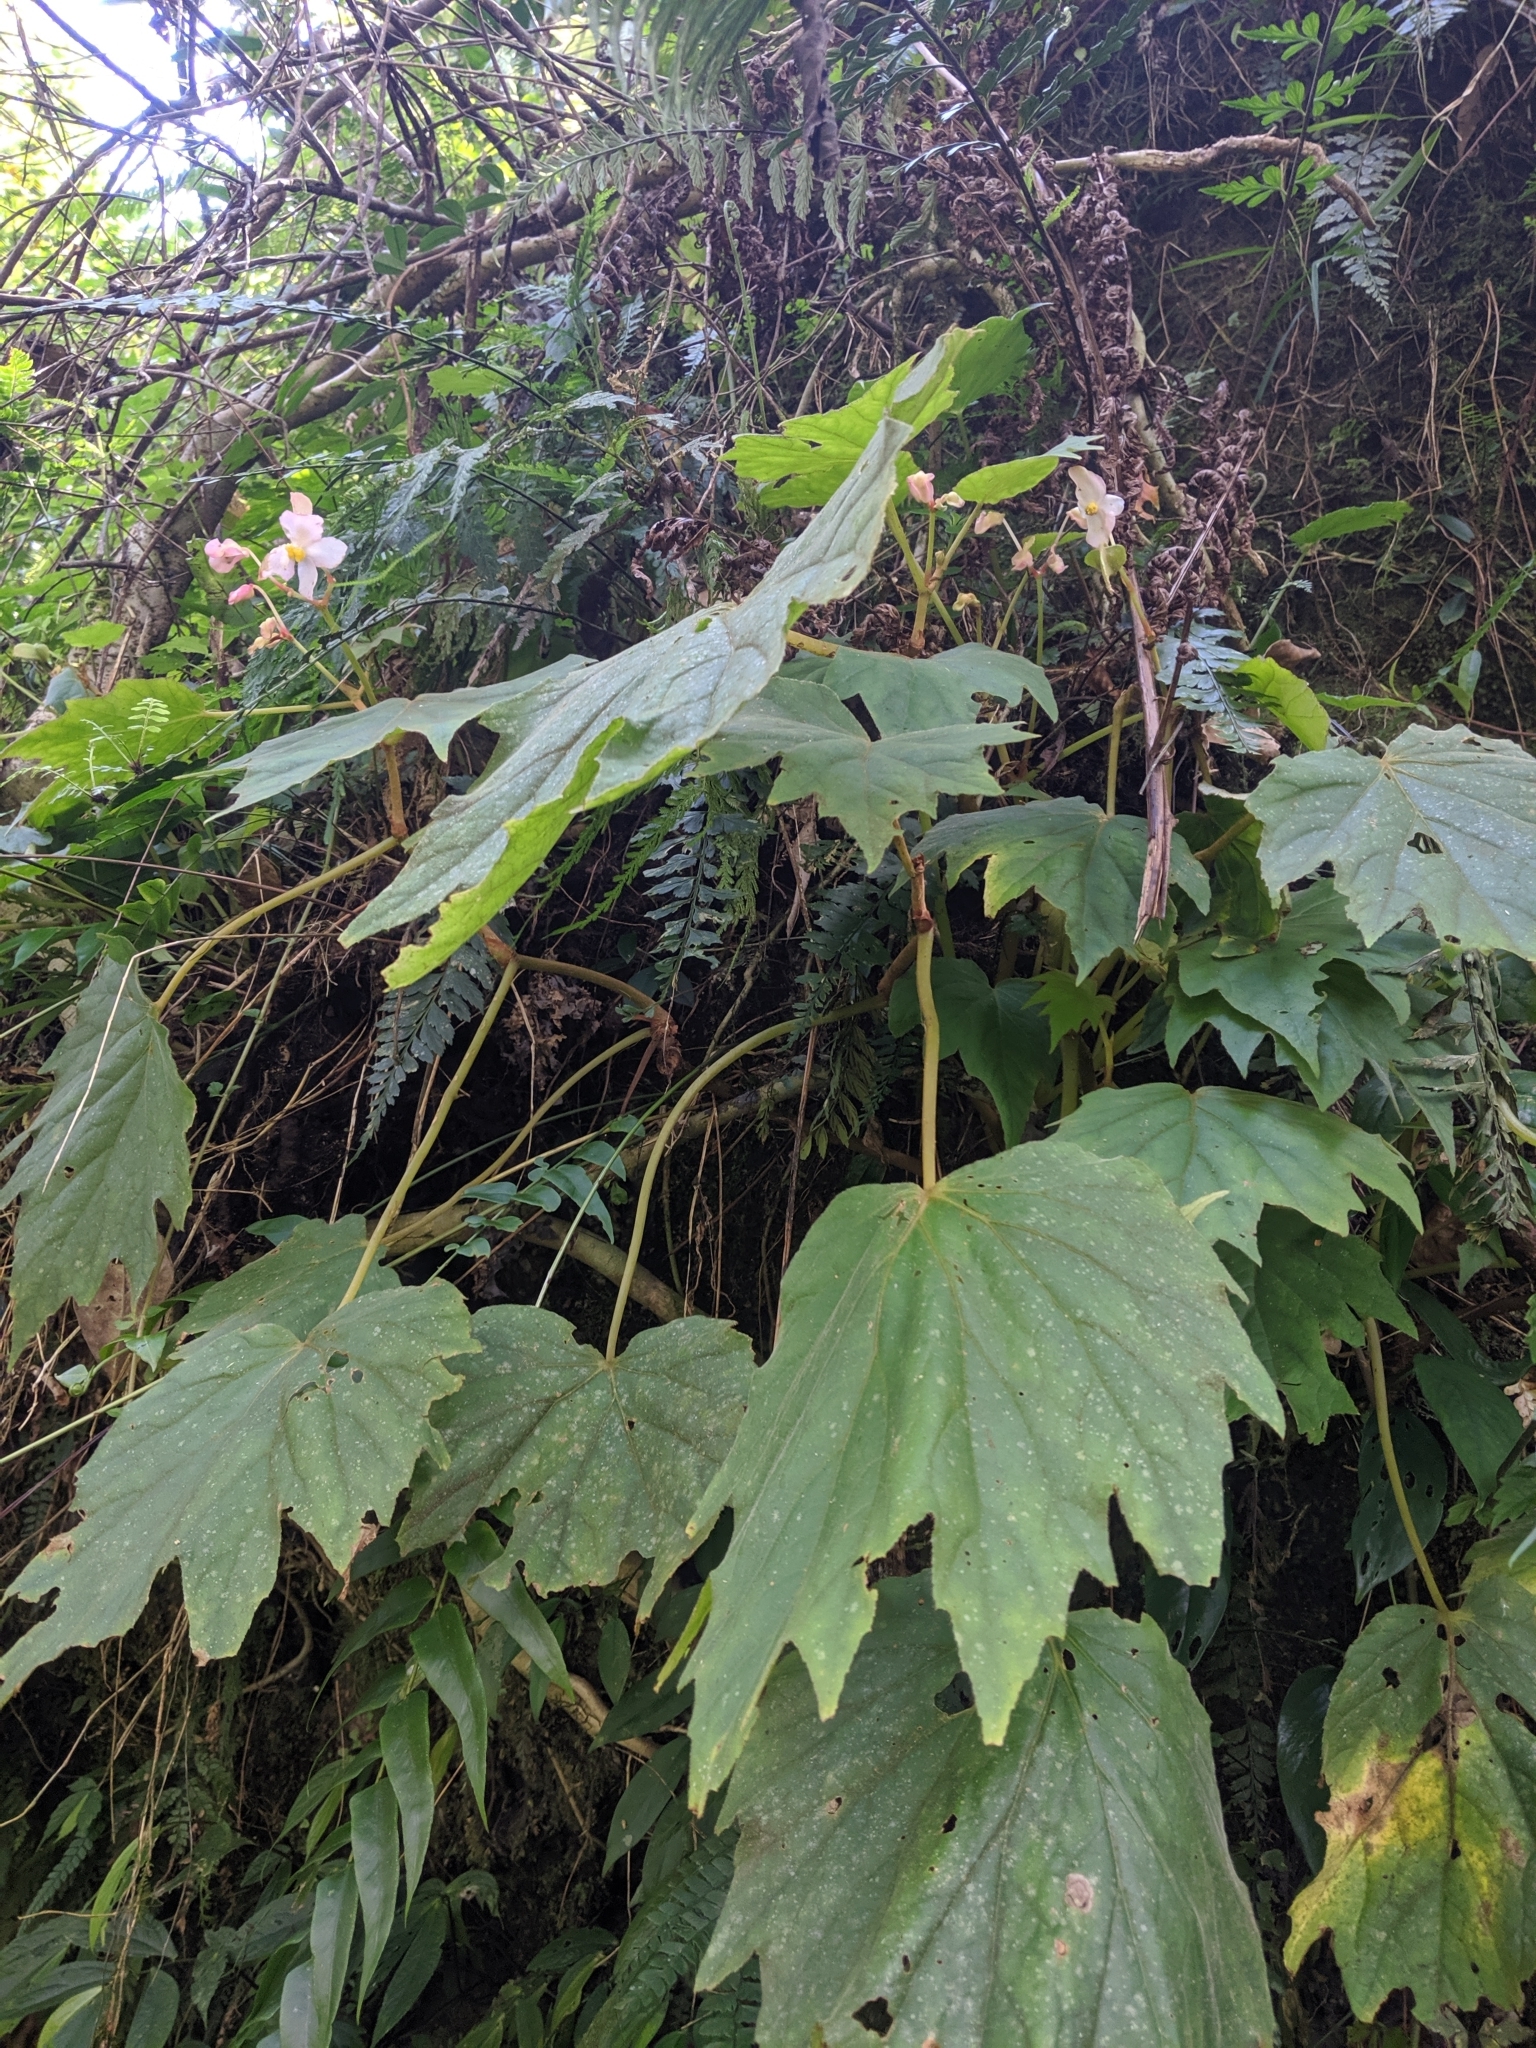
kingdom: Plantae
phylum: Tracheophyta
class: Magnoliopsida
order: Cucurbitales
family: Begoniaceae
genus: Begonia
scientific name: Begonia palmata
